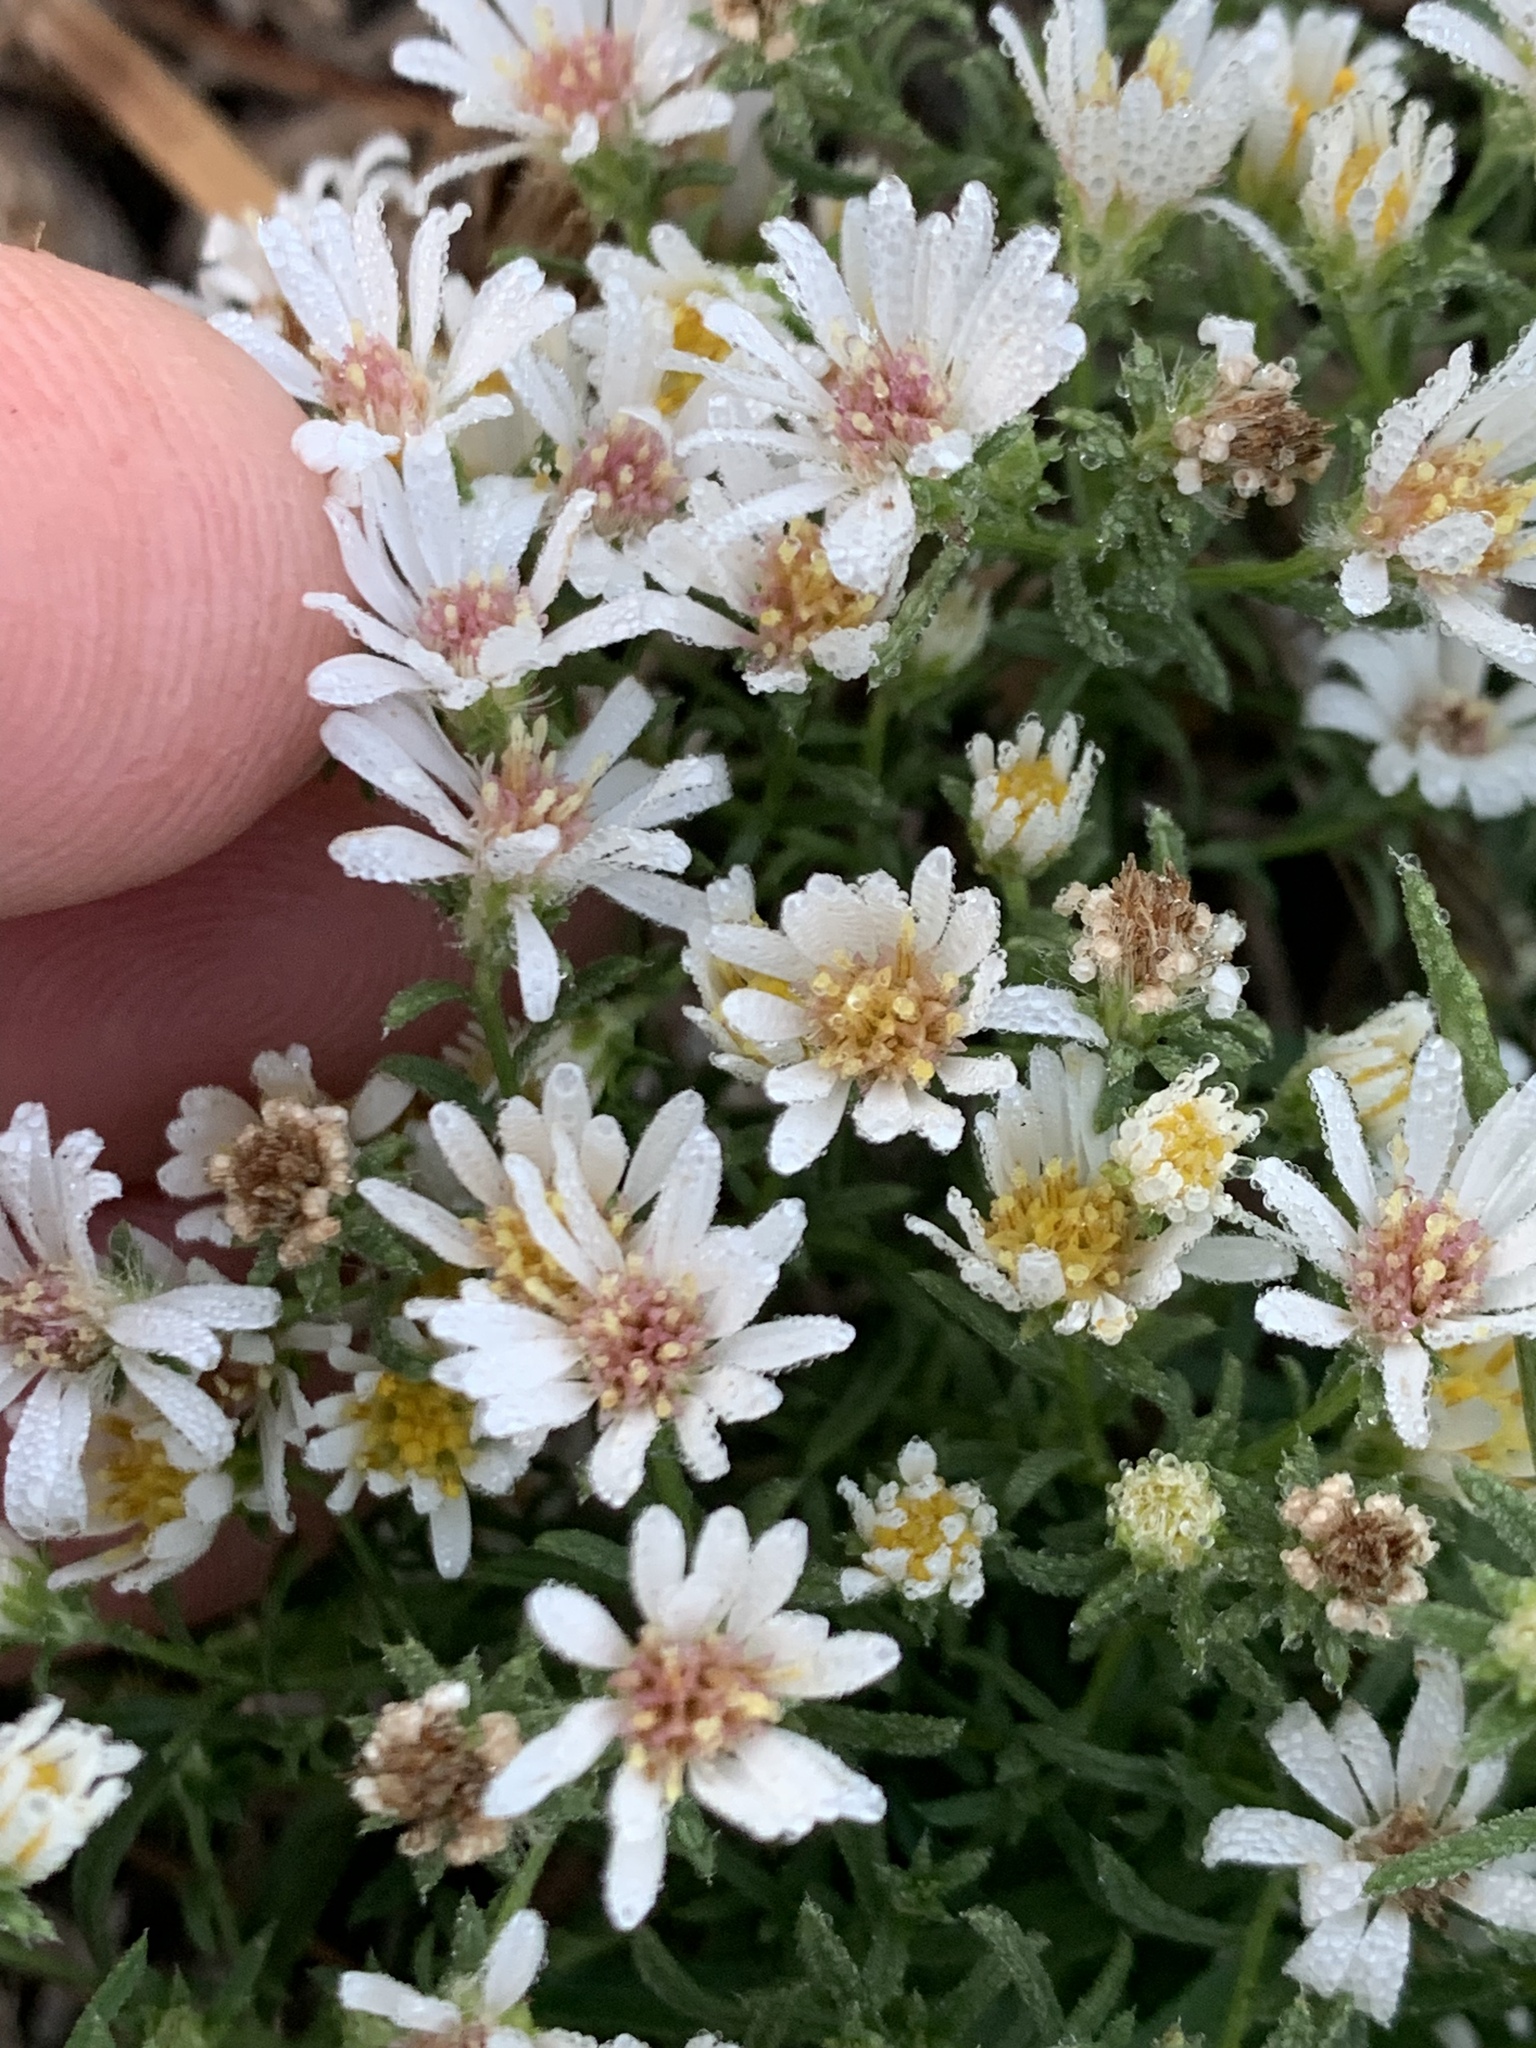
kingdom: Plantae
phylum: Tracheophyta
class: Magnoliopsida
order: Asterales
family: Asteraceae
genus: Symphyotrichum
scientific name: Symphyotrichum ericoides
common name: Heath aster
